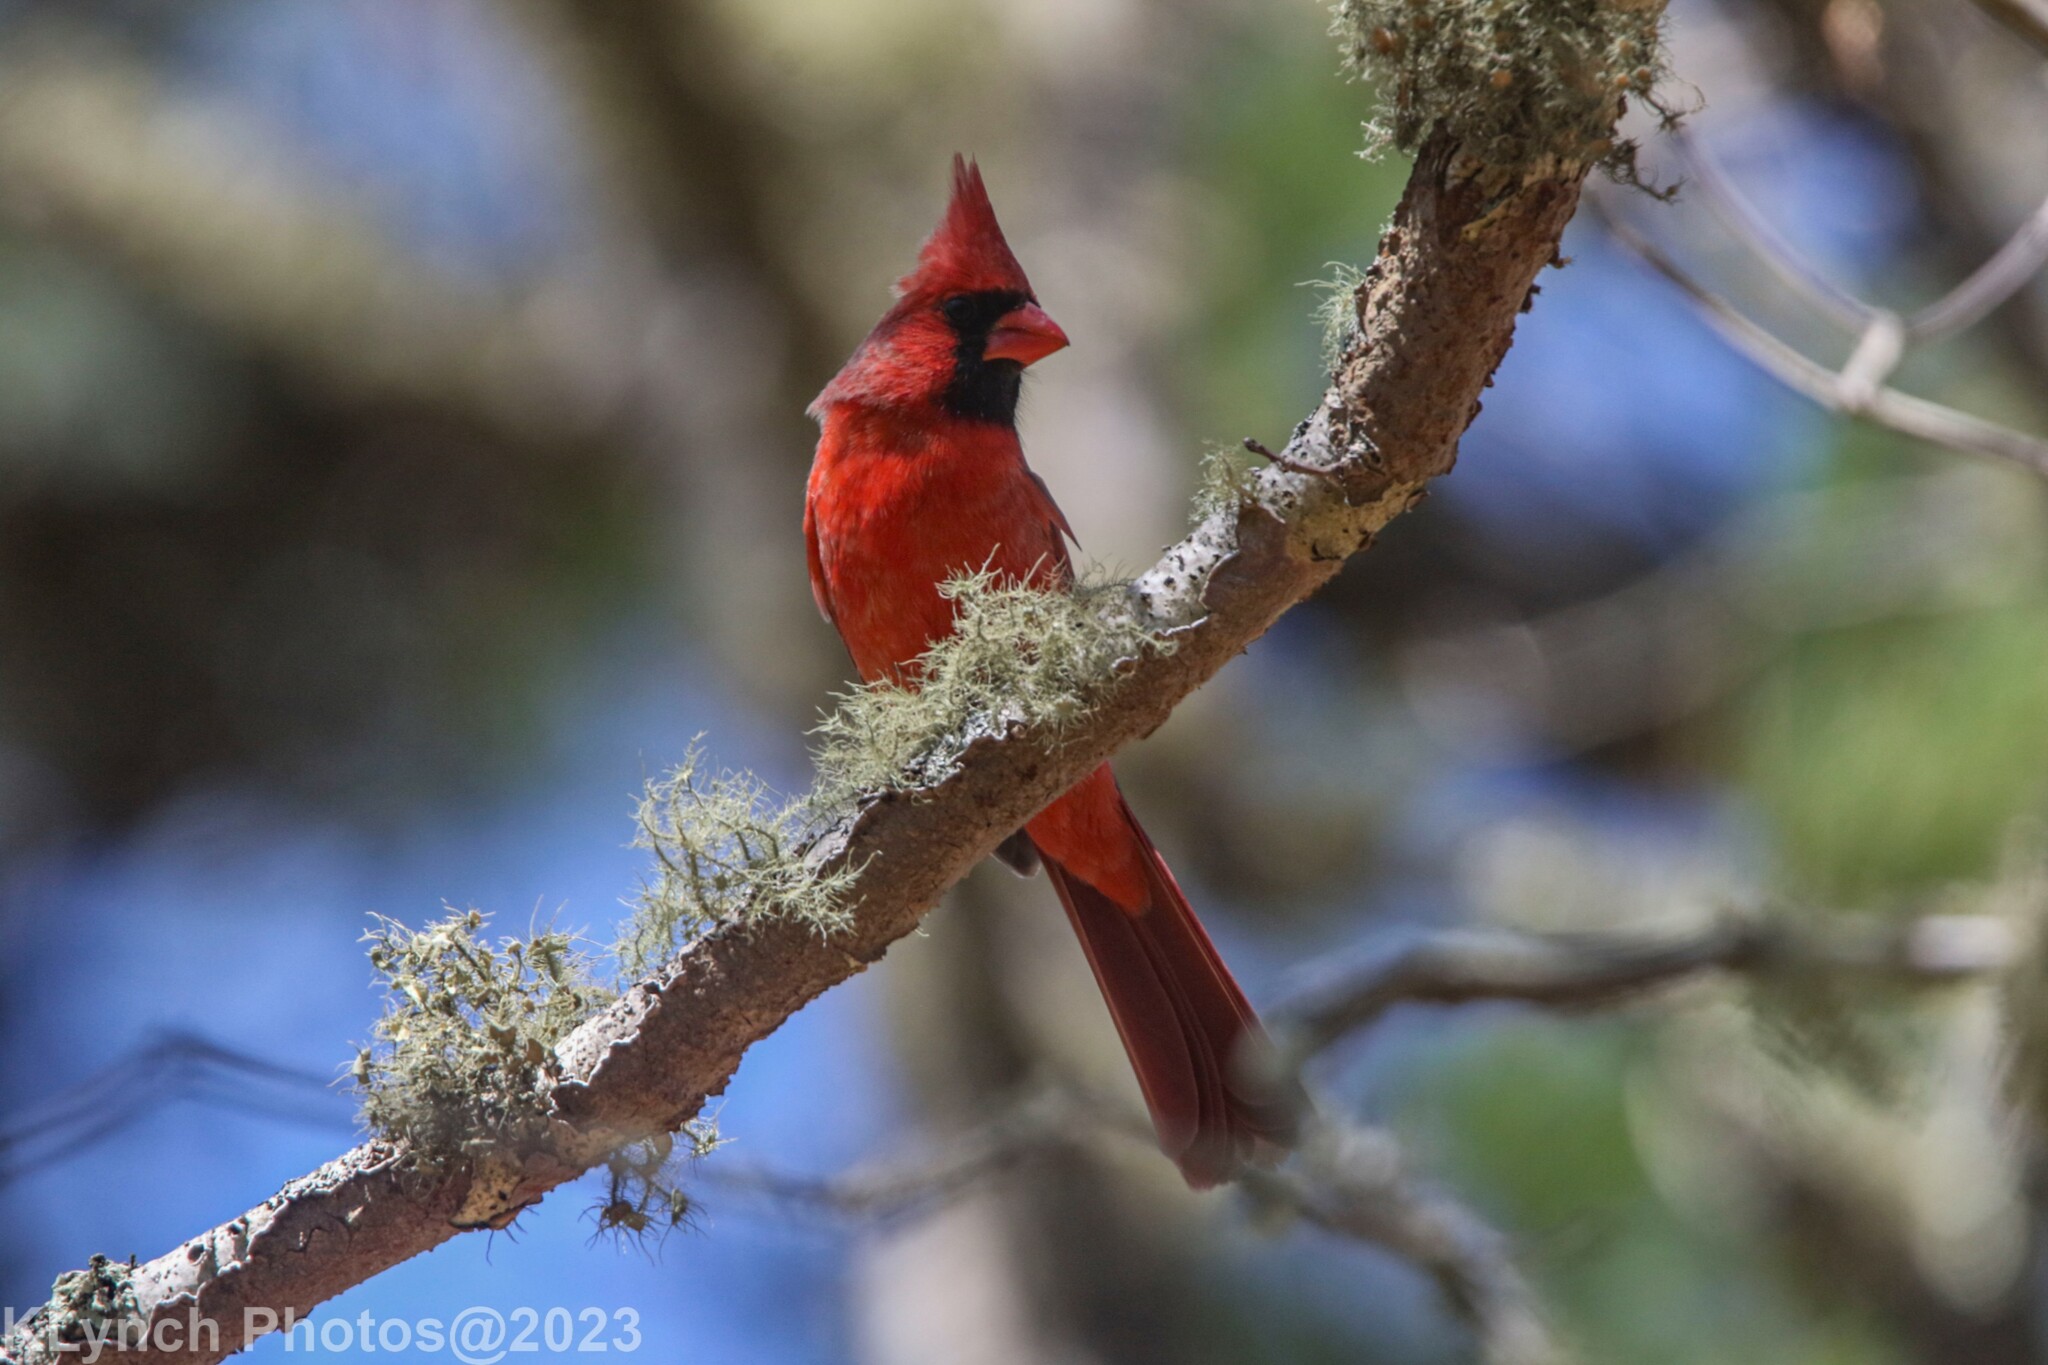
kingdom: Animalia
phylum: Chordata
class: Aves
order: Passeriformes
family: Cardinalidae
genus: Cardinalis
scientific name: Cardinalis cardinalis
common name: Northern cardinal
